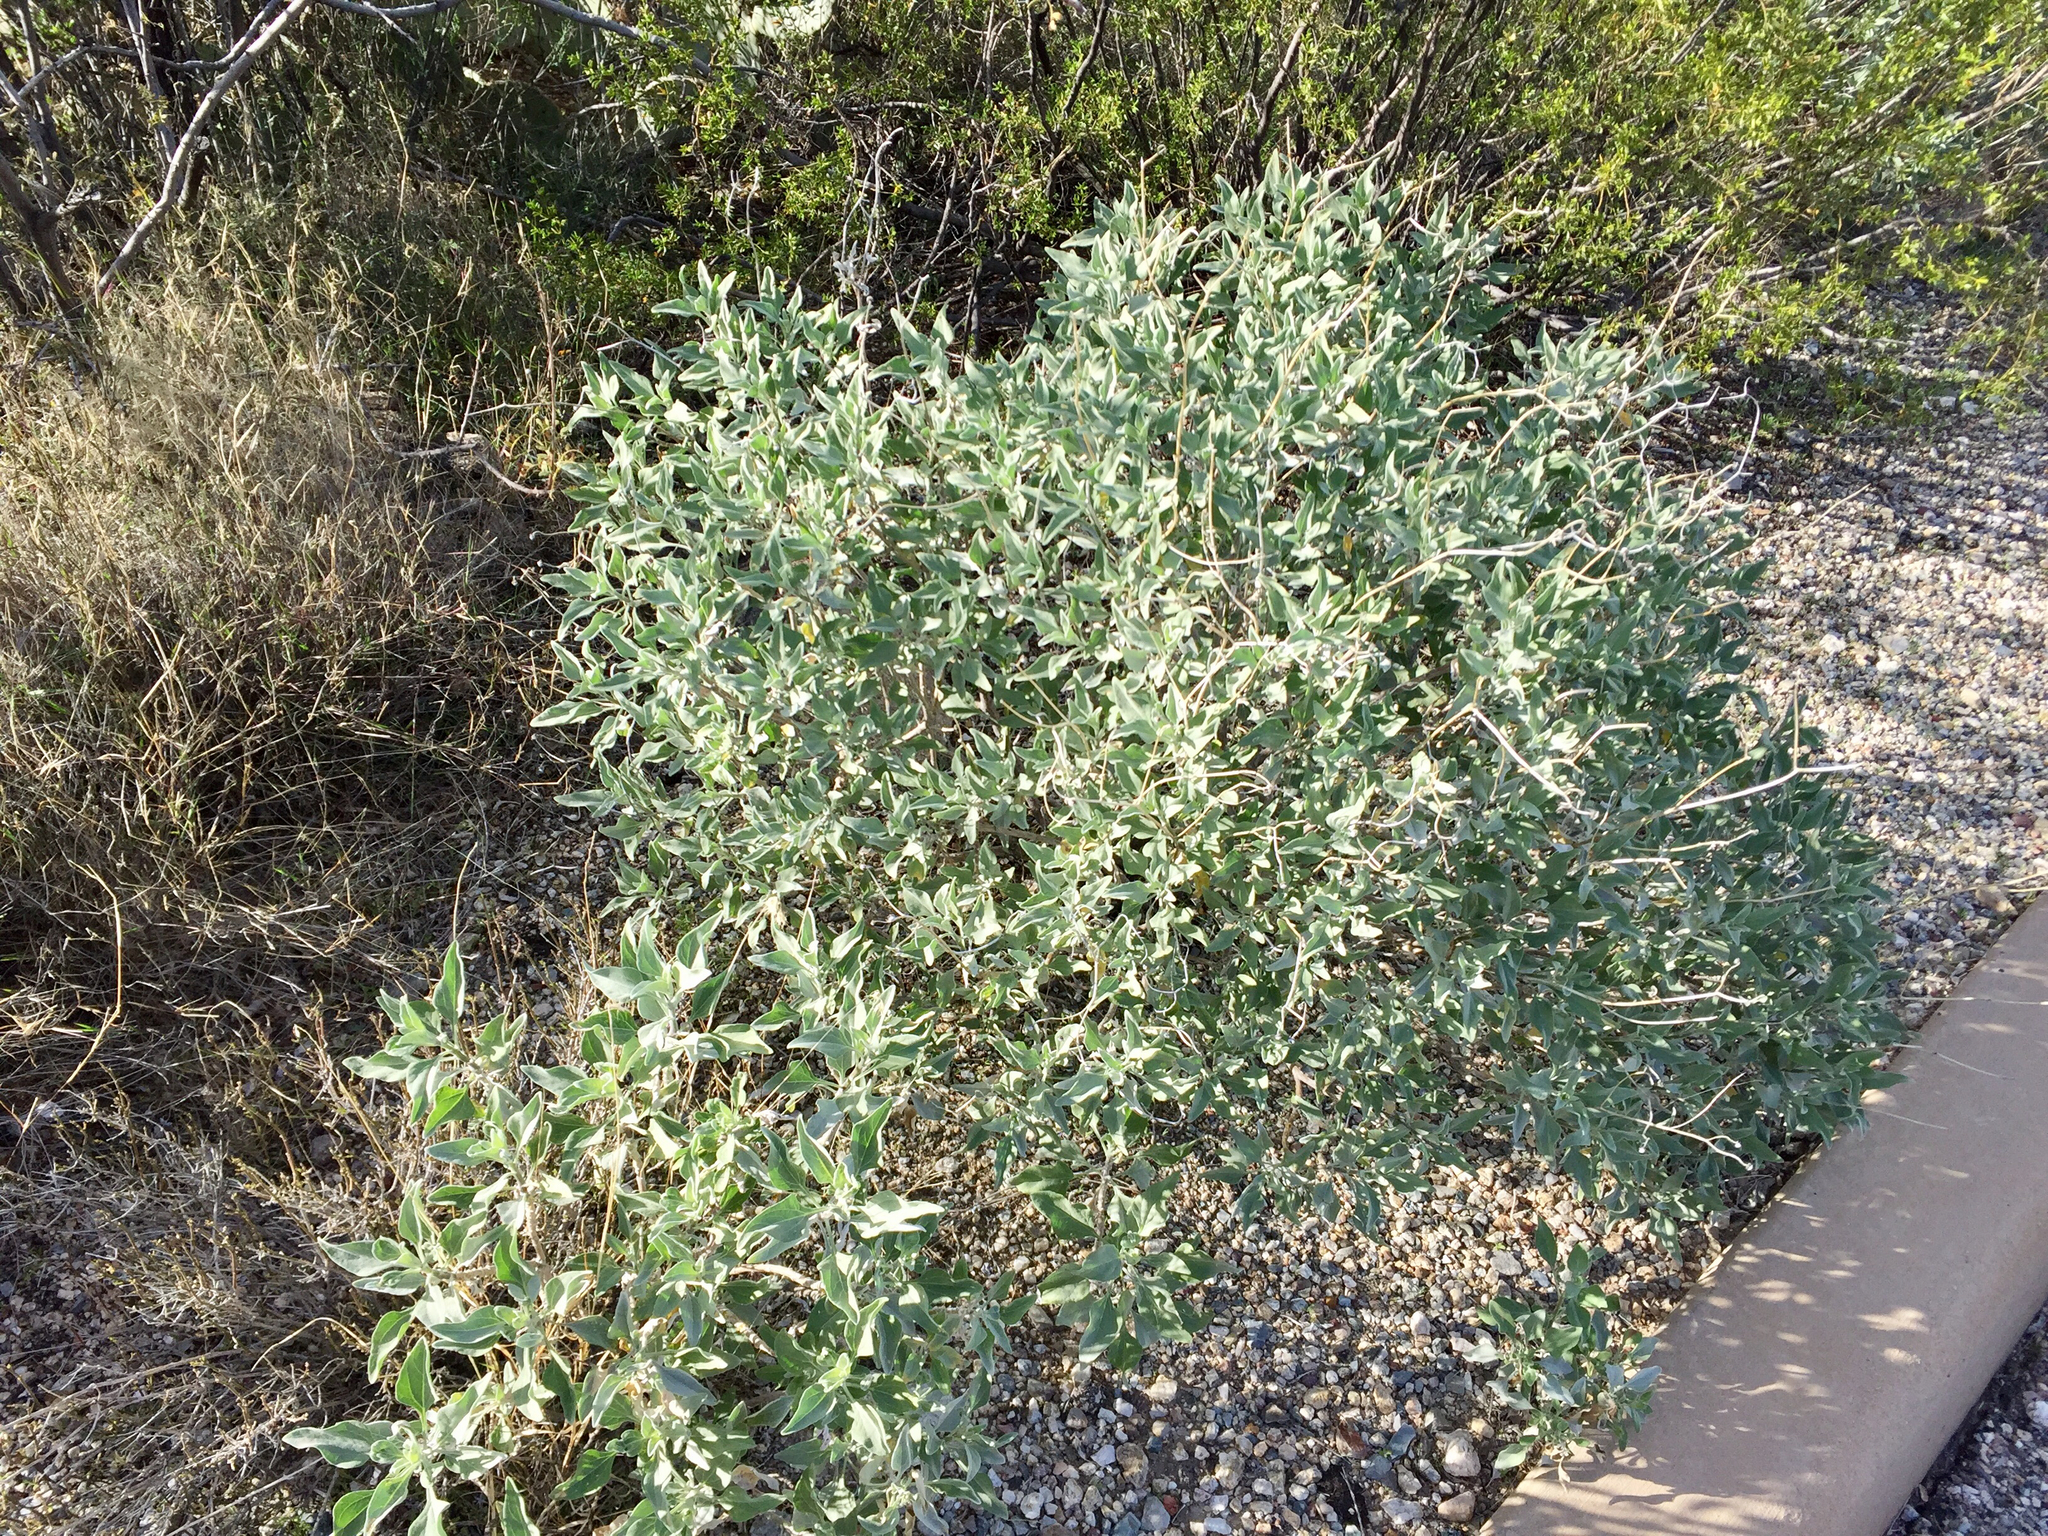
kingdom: Plantae
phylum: Tracheophyta
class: Magnoliopsida
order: Asterales
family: Asteraceae
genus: Encelia
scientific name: Encelia farinosa
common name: Brittlebush
